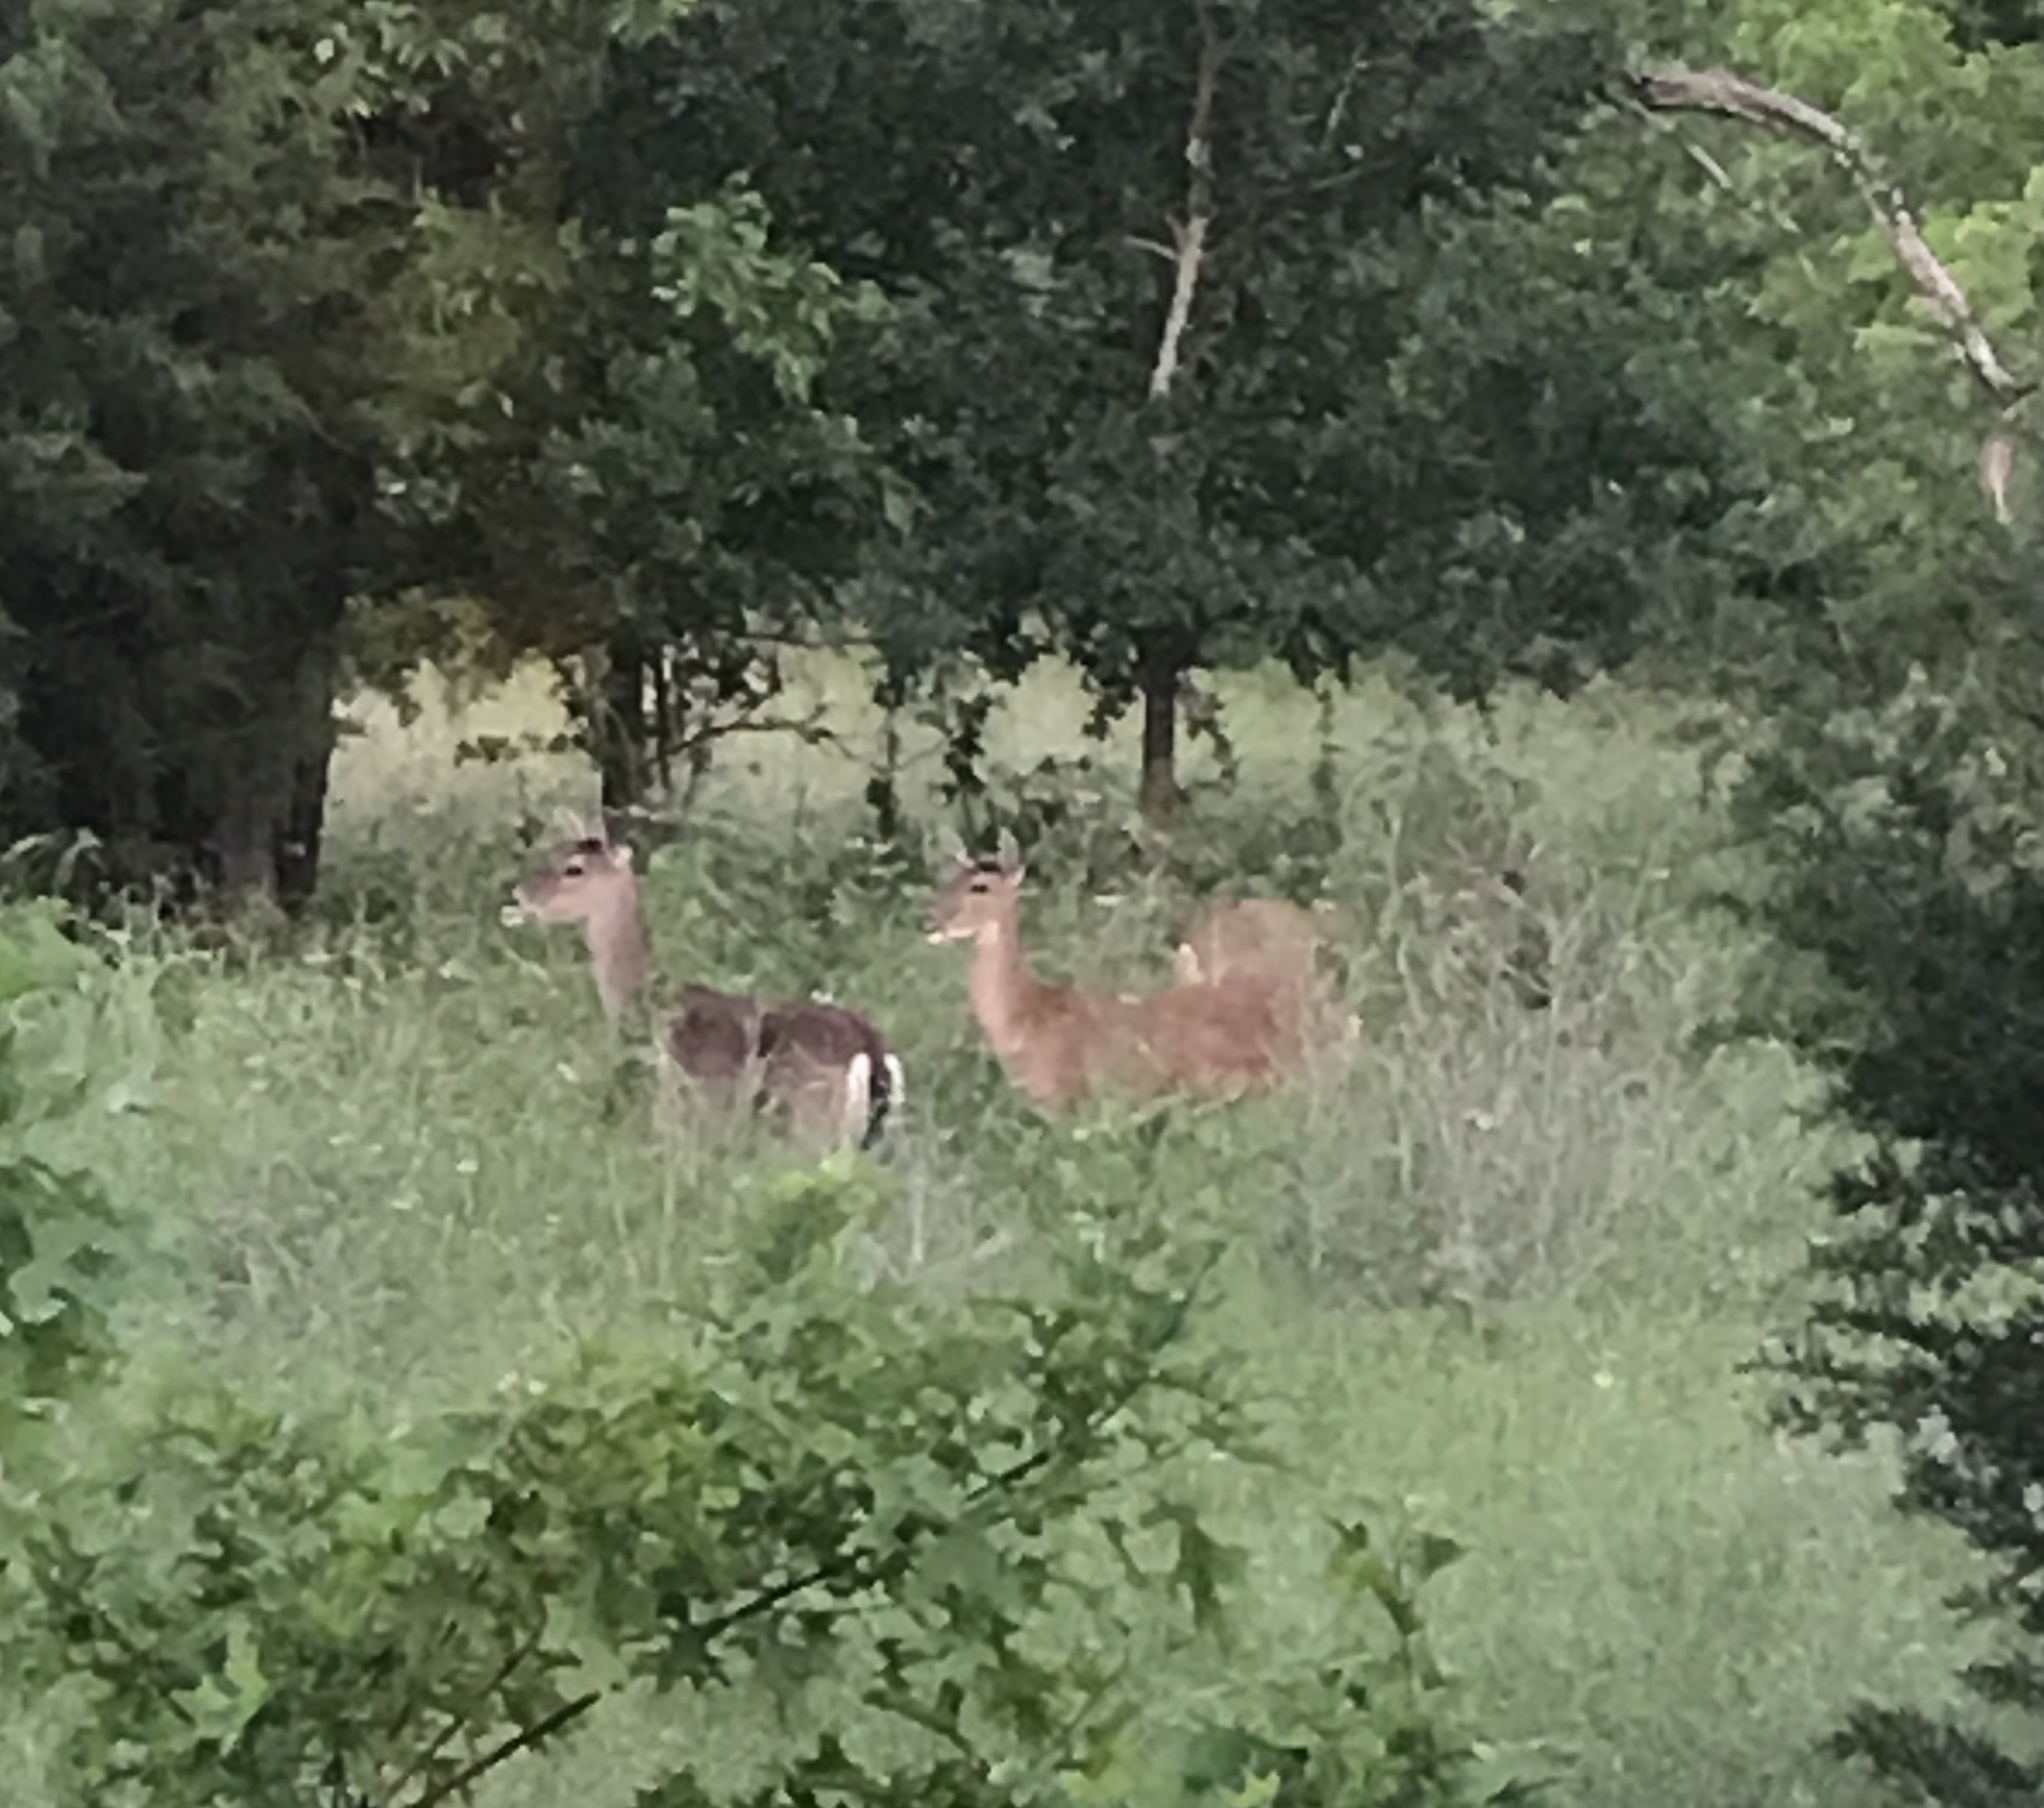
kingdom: Animalia
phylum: Chordata
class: Mammalia
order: Artiodactyla
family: Cervidae
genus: Odocoileus
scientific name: Odocoileus virginianus
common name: White-tailed deer
